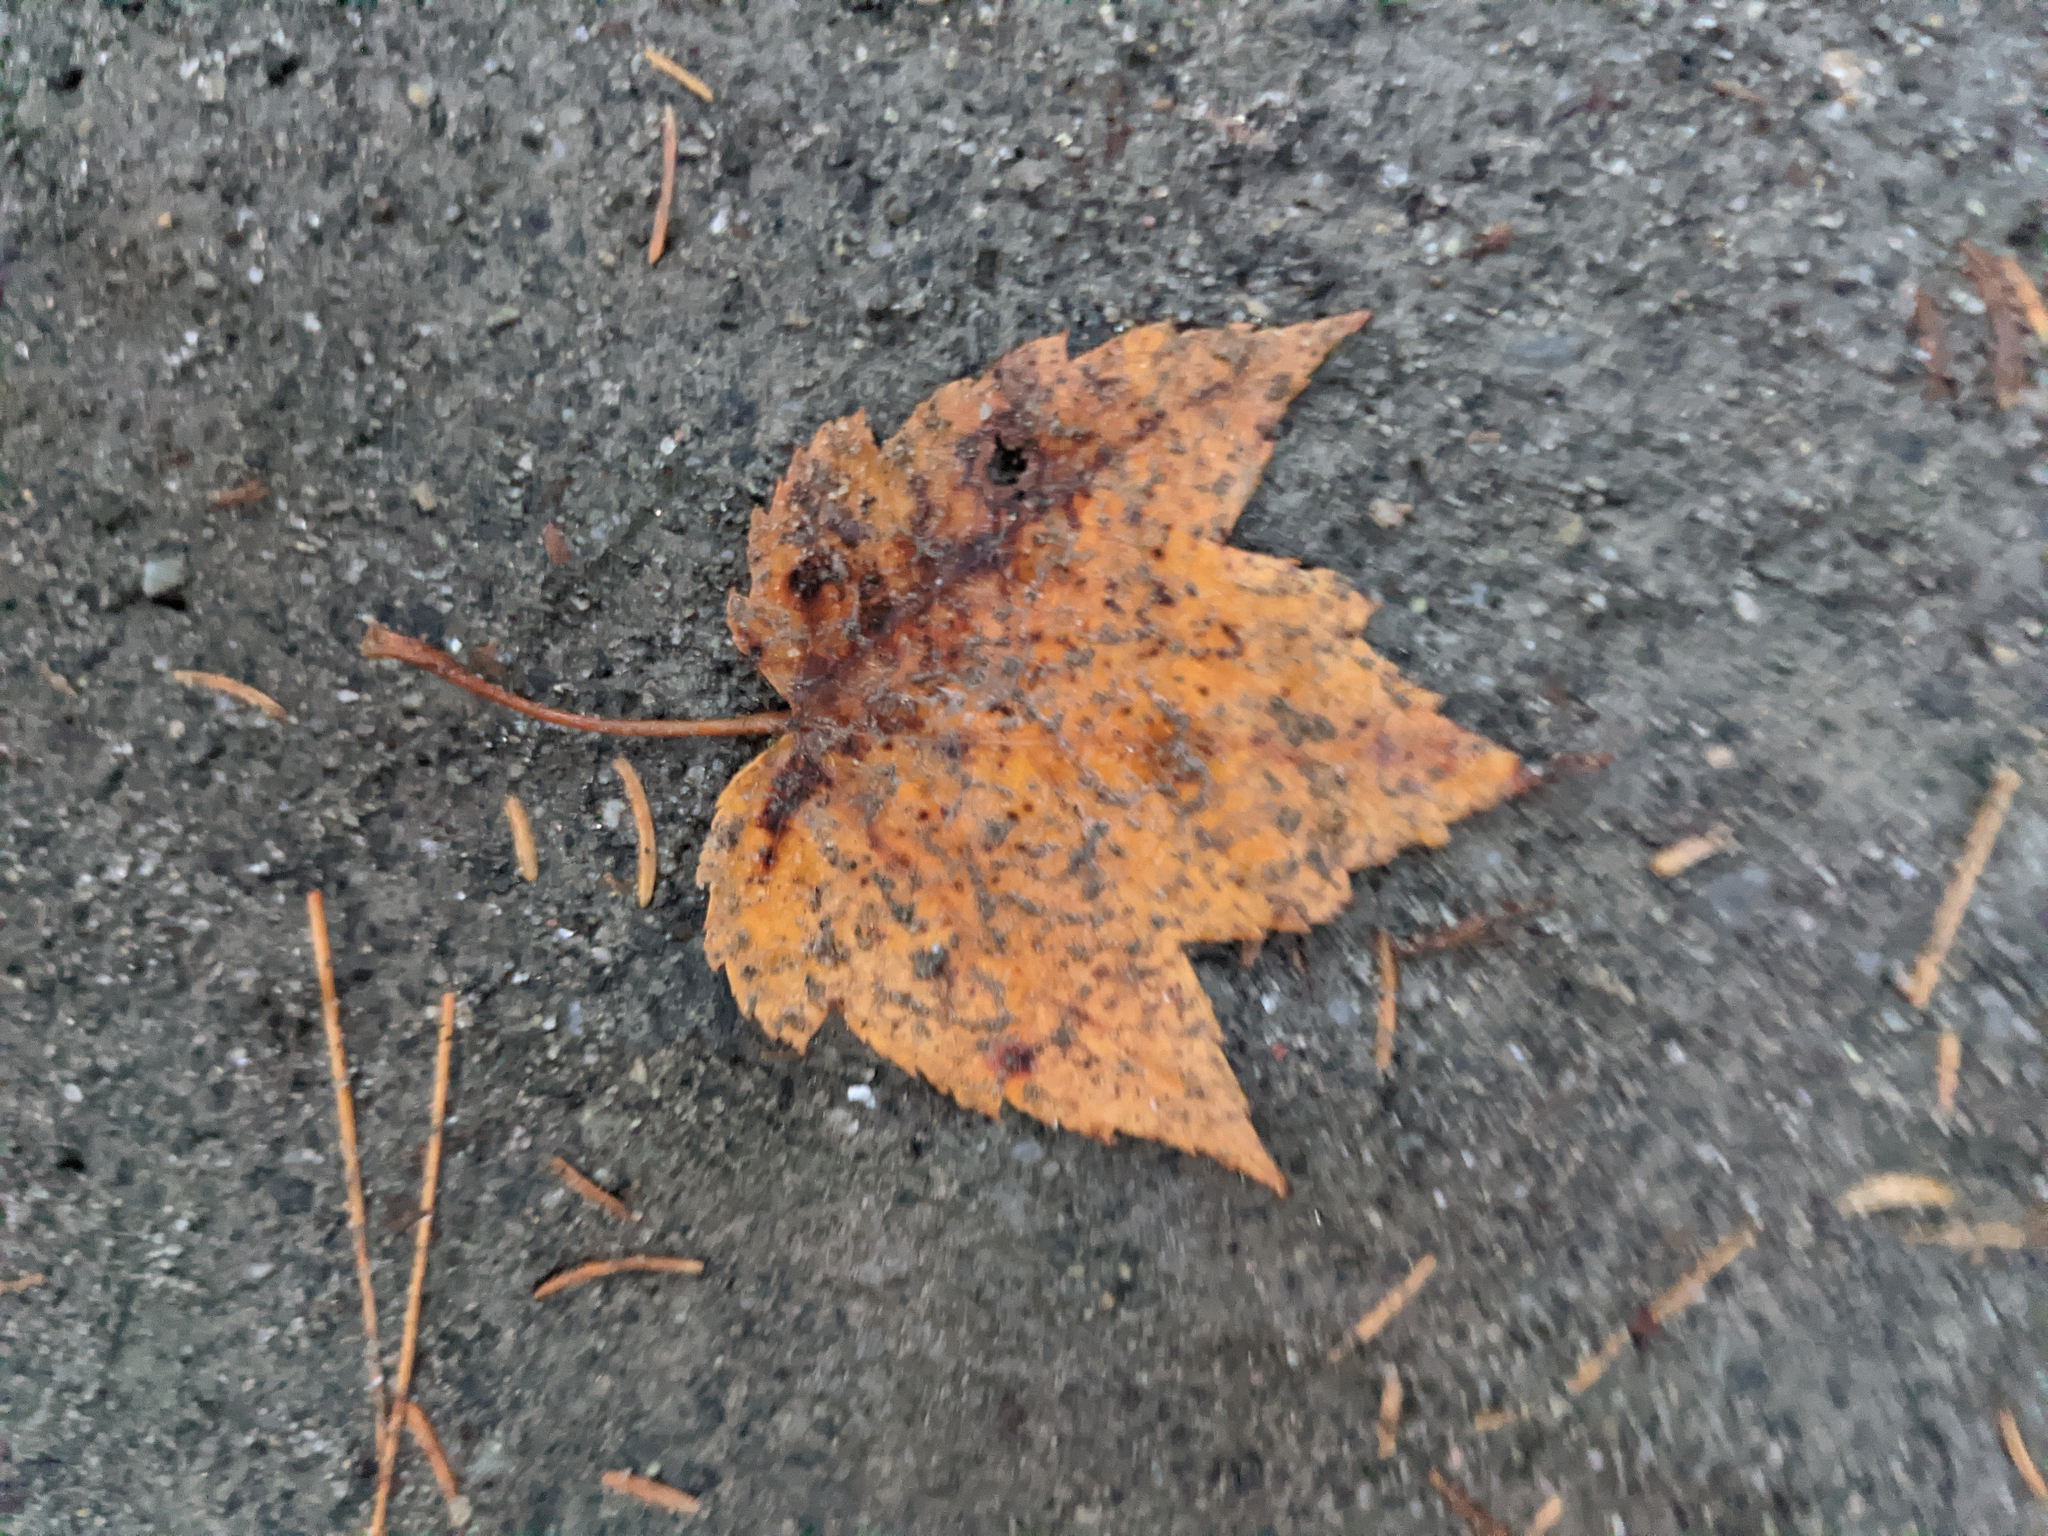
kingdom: Plantae
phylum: Tracheophyta
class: Magnoliopsida
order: Sapindales
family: Sapindaceae
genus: Acer
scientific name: Acer rubrum
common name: Red maple
